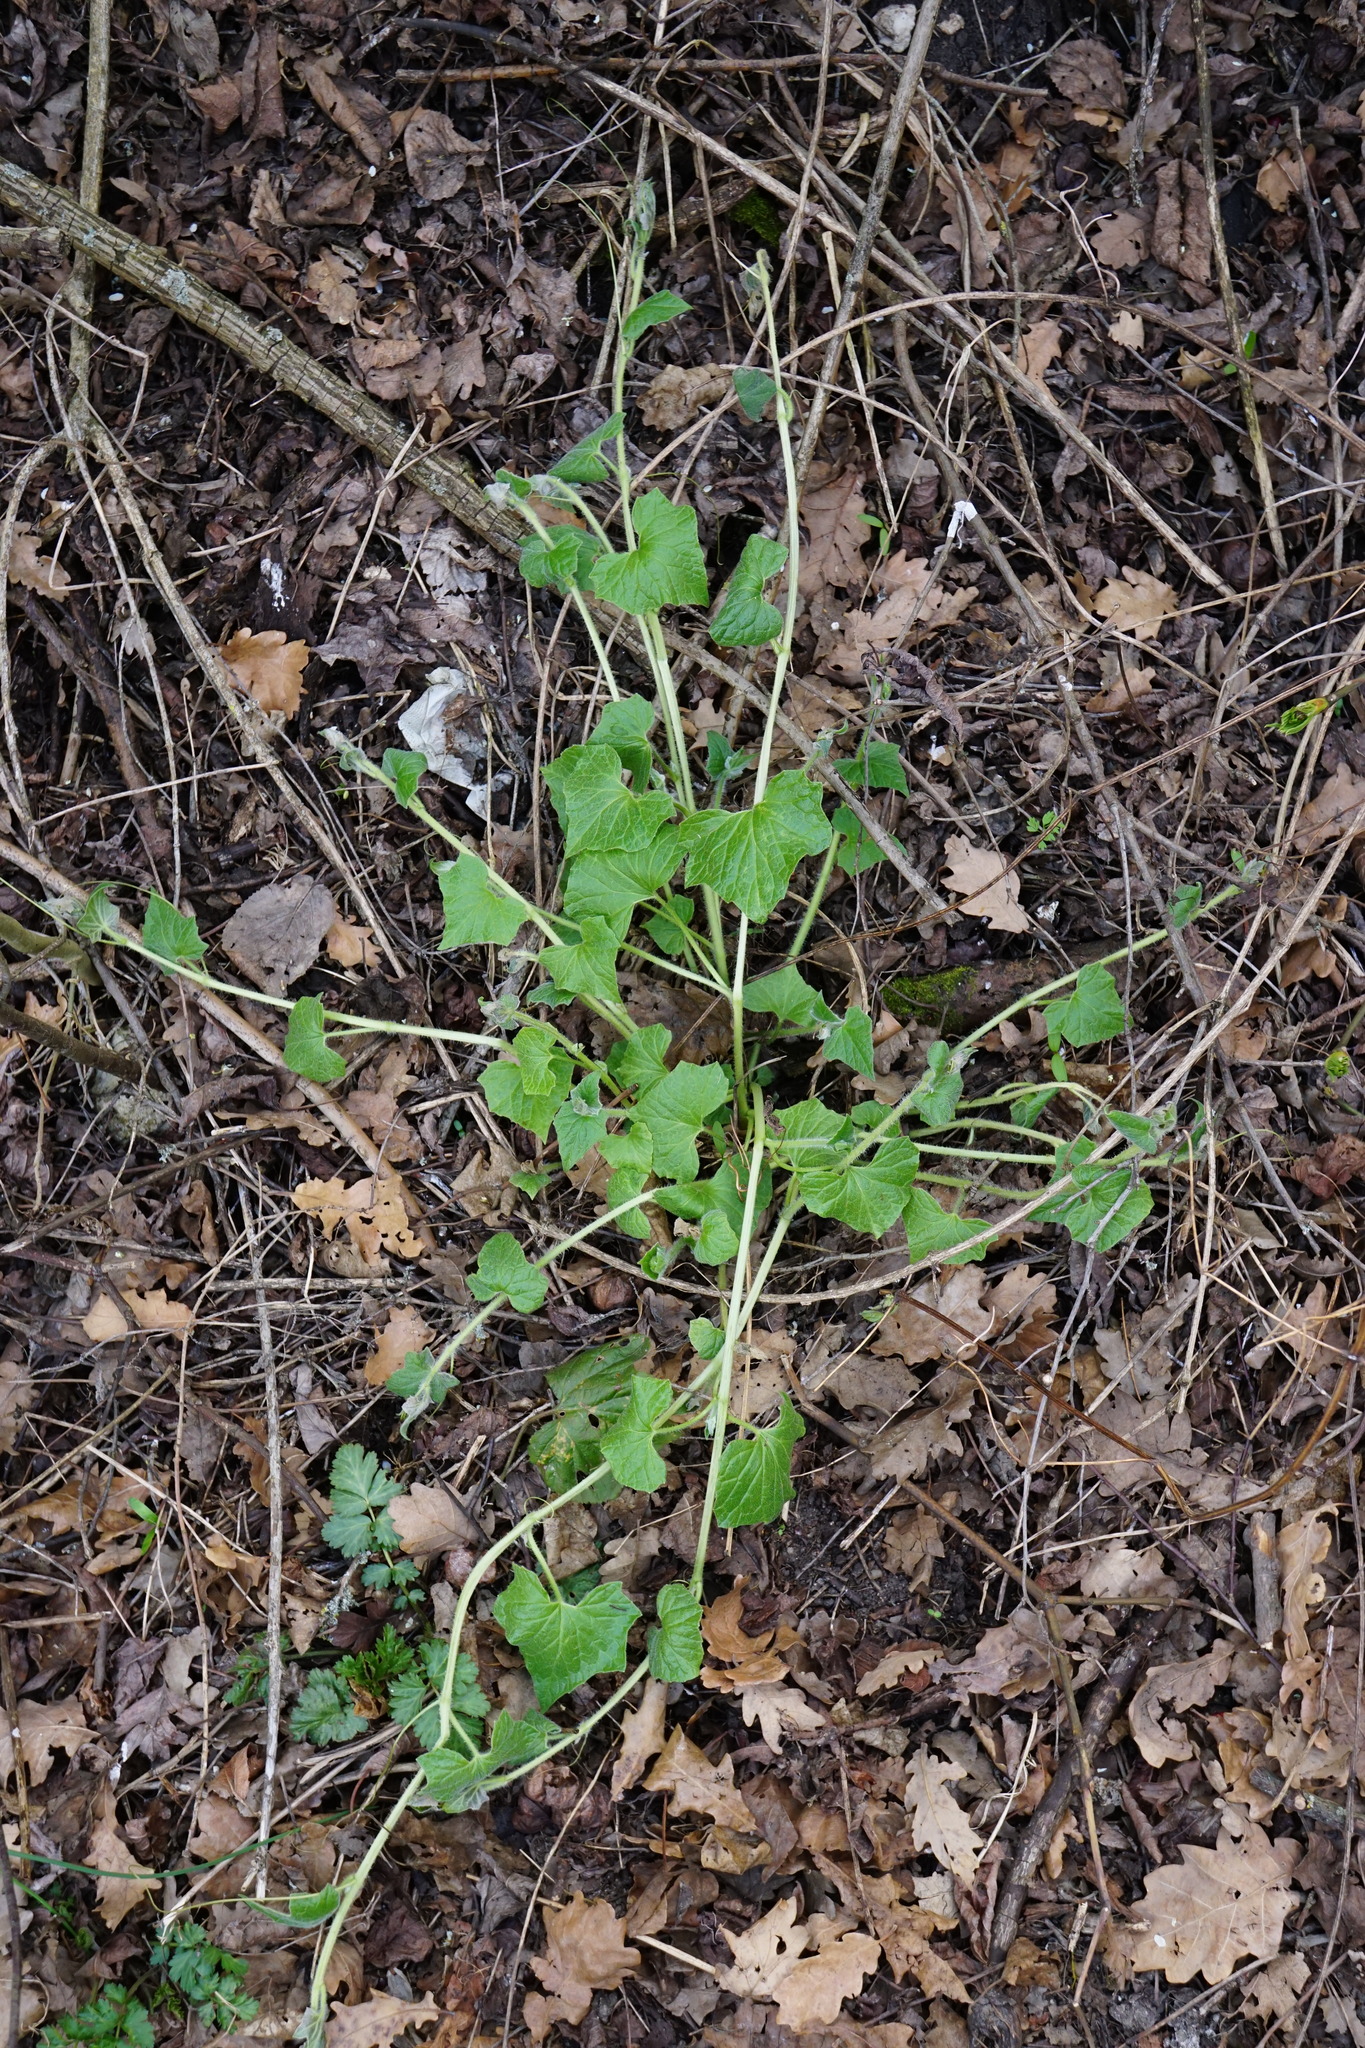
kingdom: Plantae
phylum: Tracheophyta
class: Magnoliopsida
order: Cucurbitales
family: Cucurbitaceae
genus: Bryonia
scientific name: Bryonia dioica
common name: White bryony
